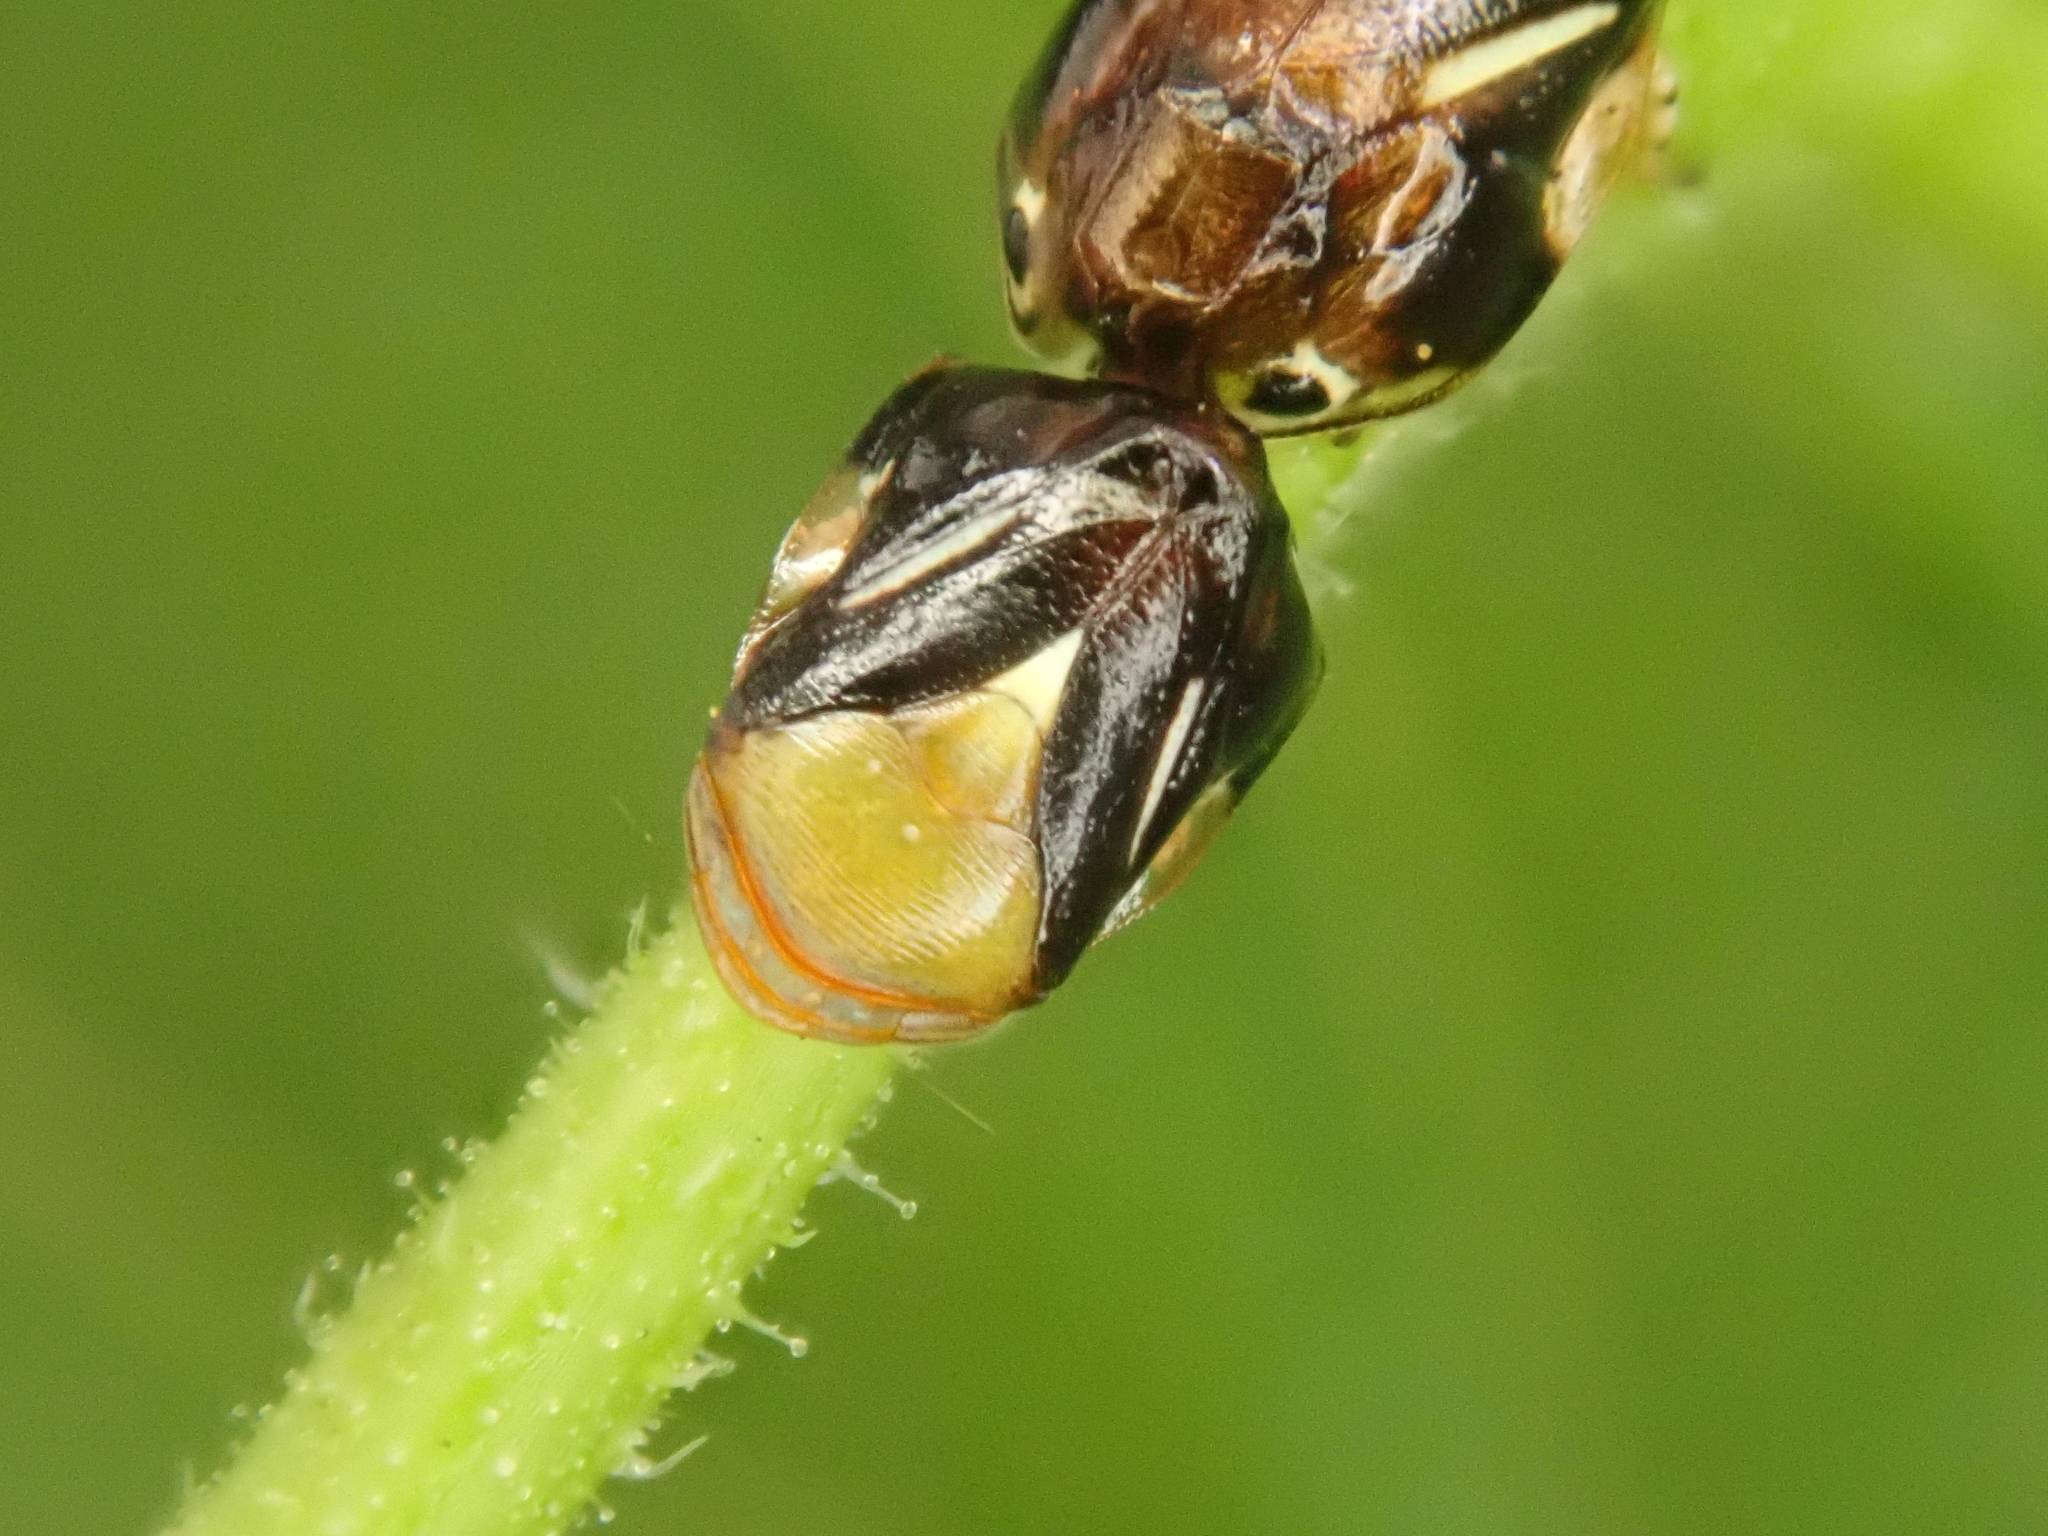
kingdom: Animalia
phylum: Arthropoda
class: Insecta
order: Hemiptera
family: Clastopteridae
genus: Clastoptera
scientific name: Clastoptera cimicoides
